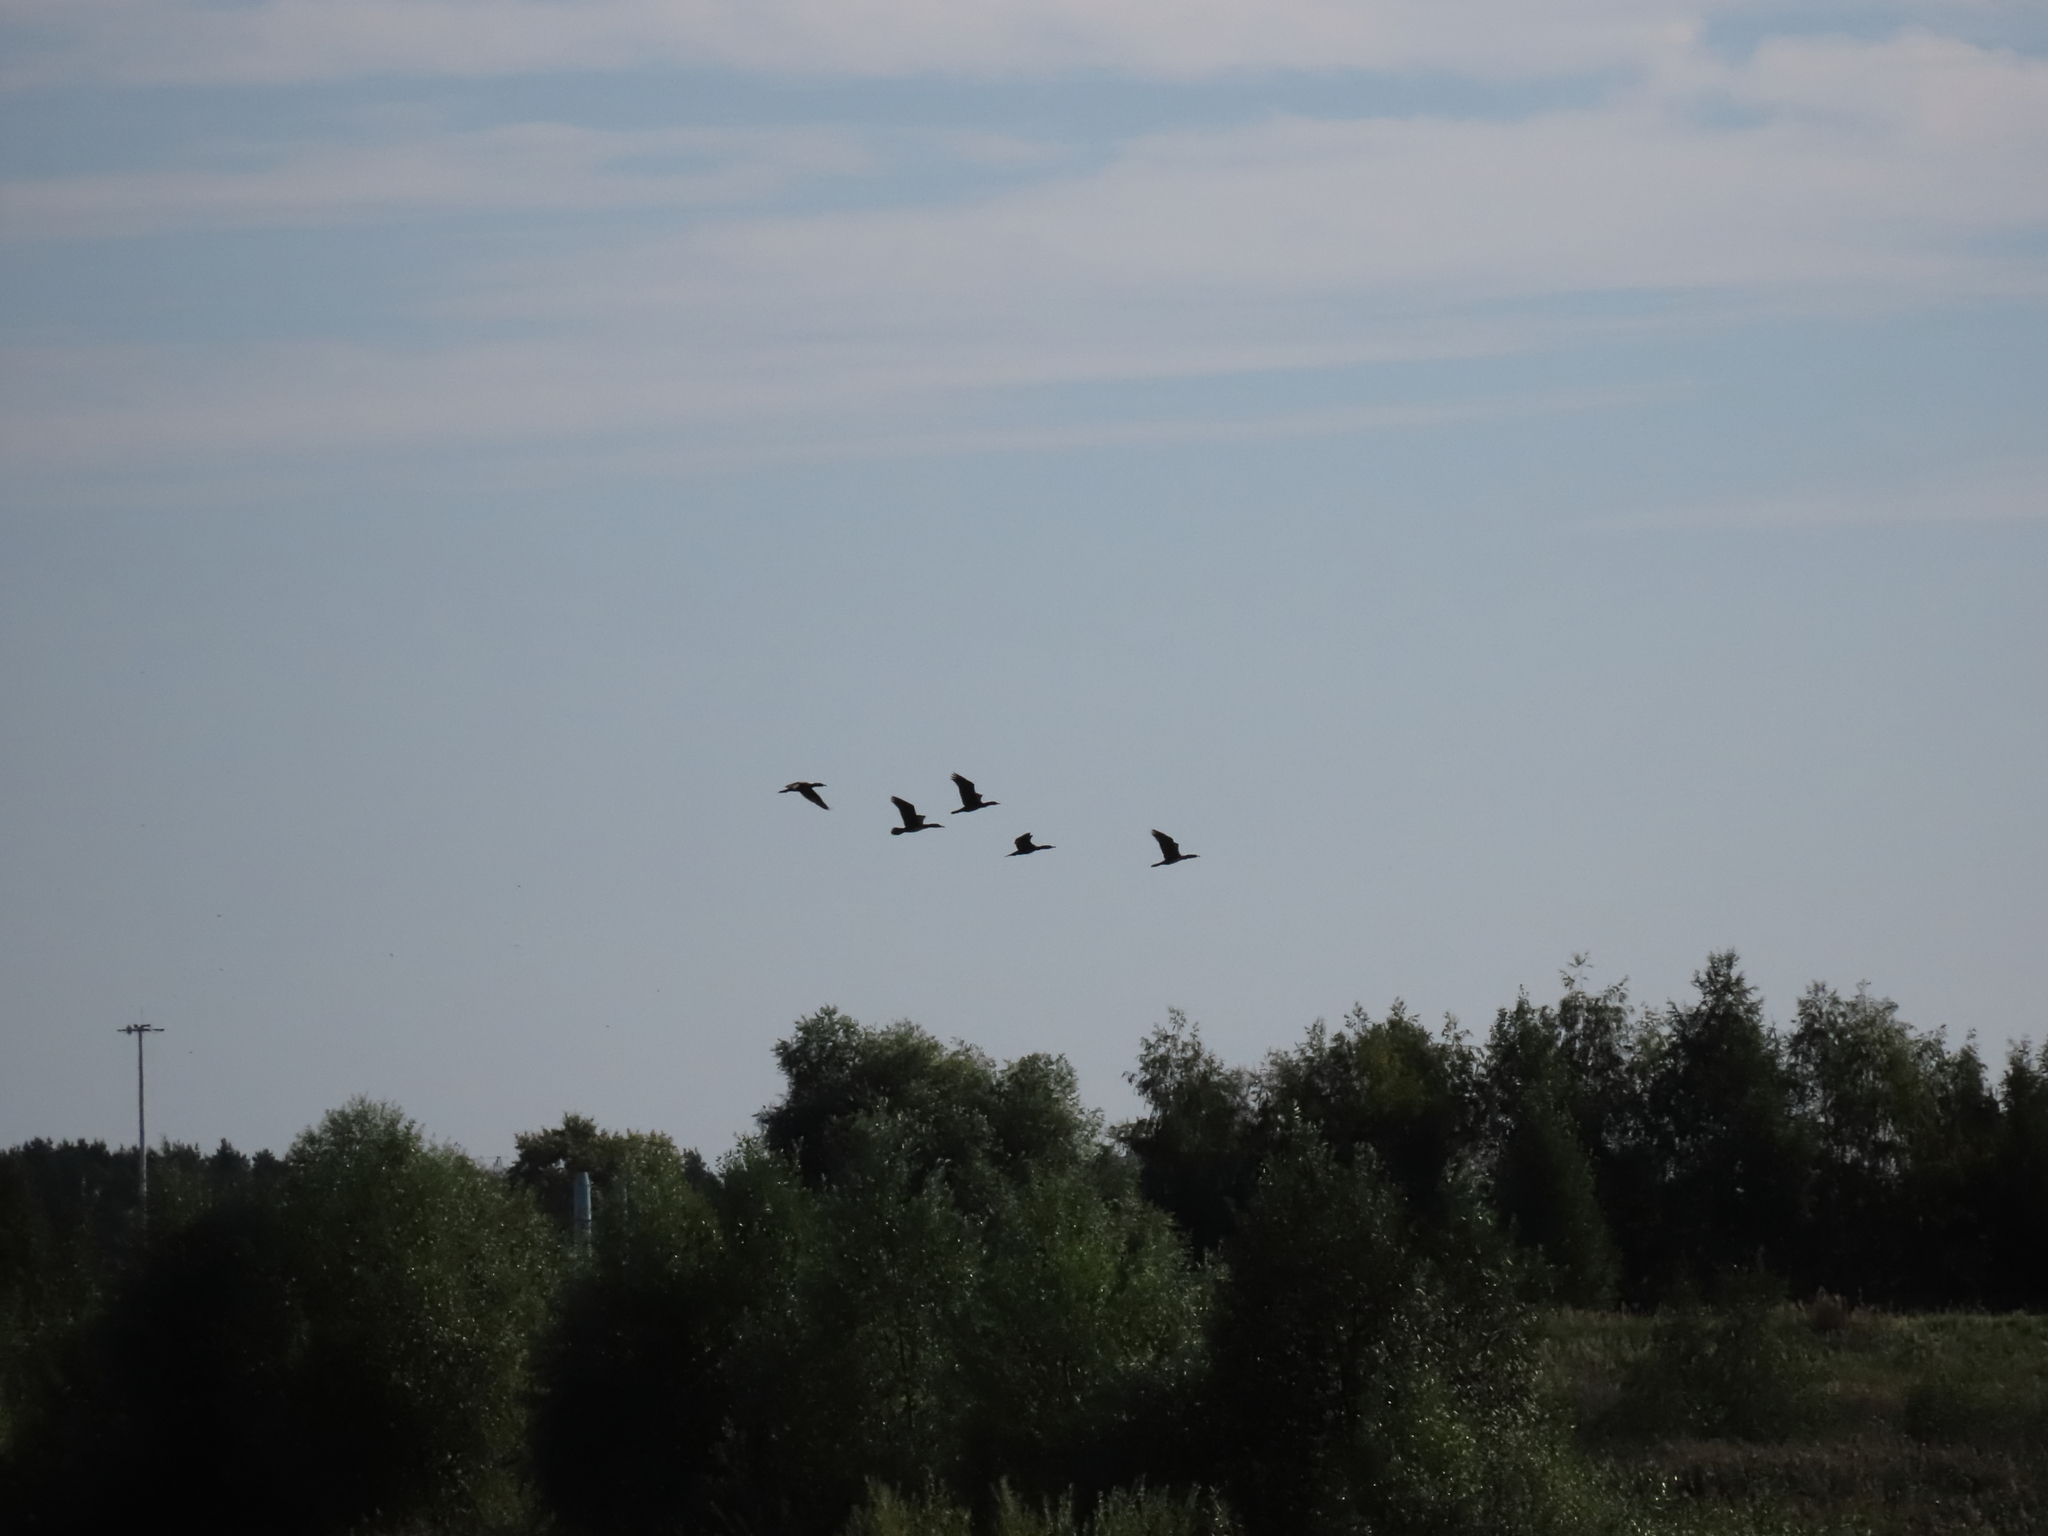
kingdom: Animalia
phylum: Chordata
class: Aves
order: Suliformes
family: Phalacrocoracidae
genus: Phalacrocorax
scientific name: Phalacrocorax carbo
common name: Great cormorant
